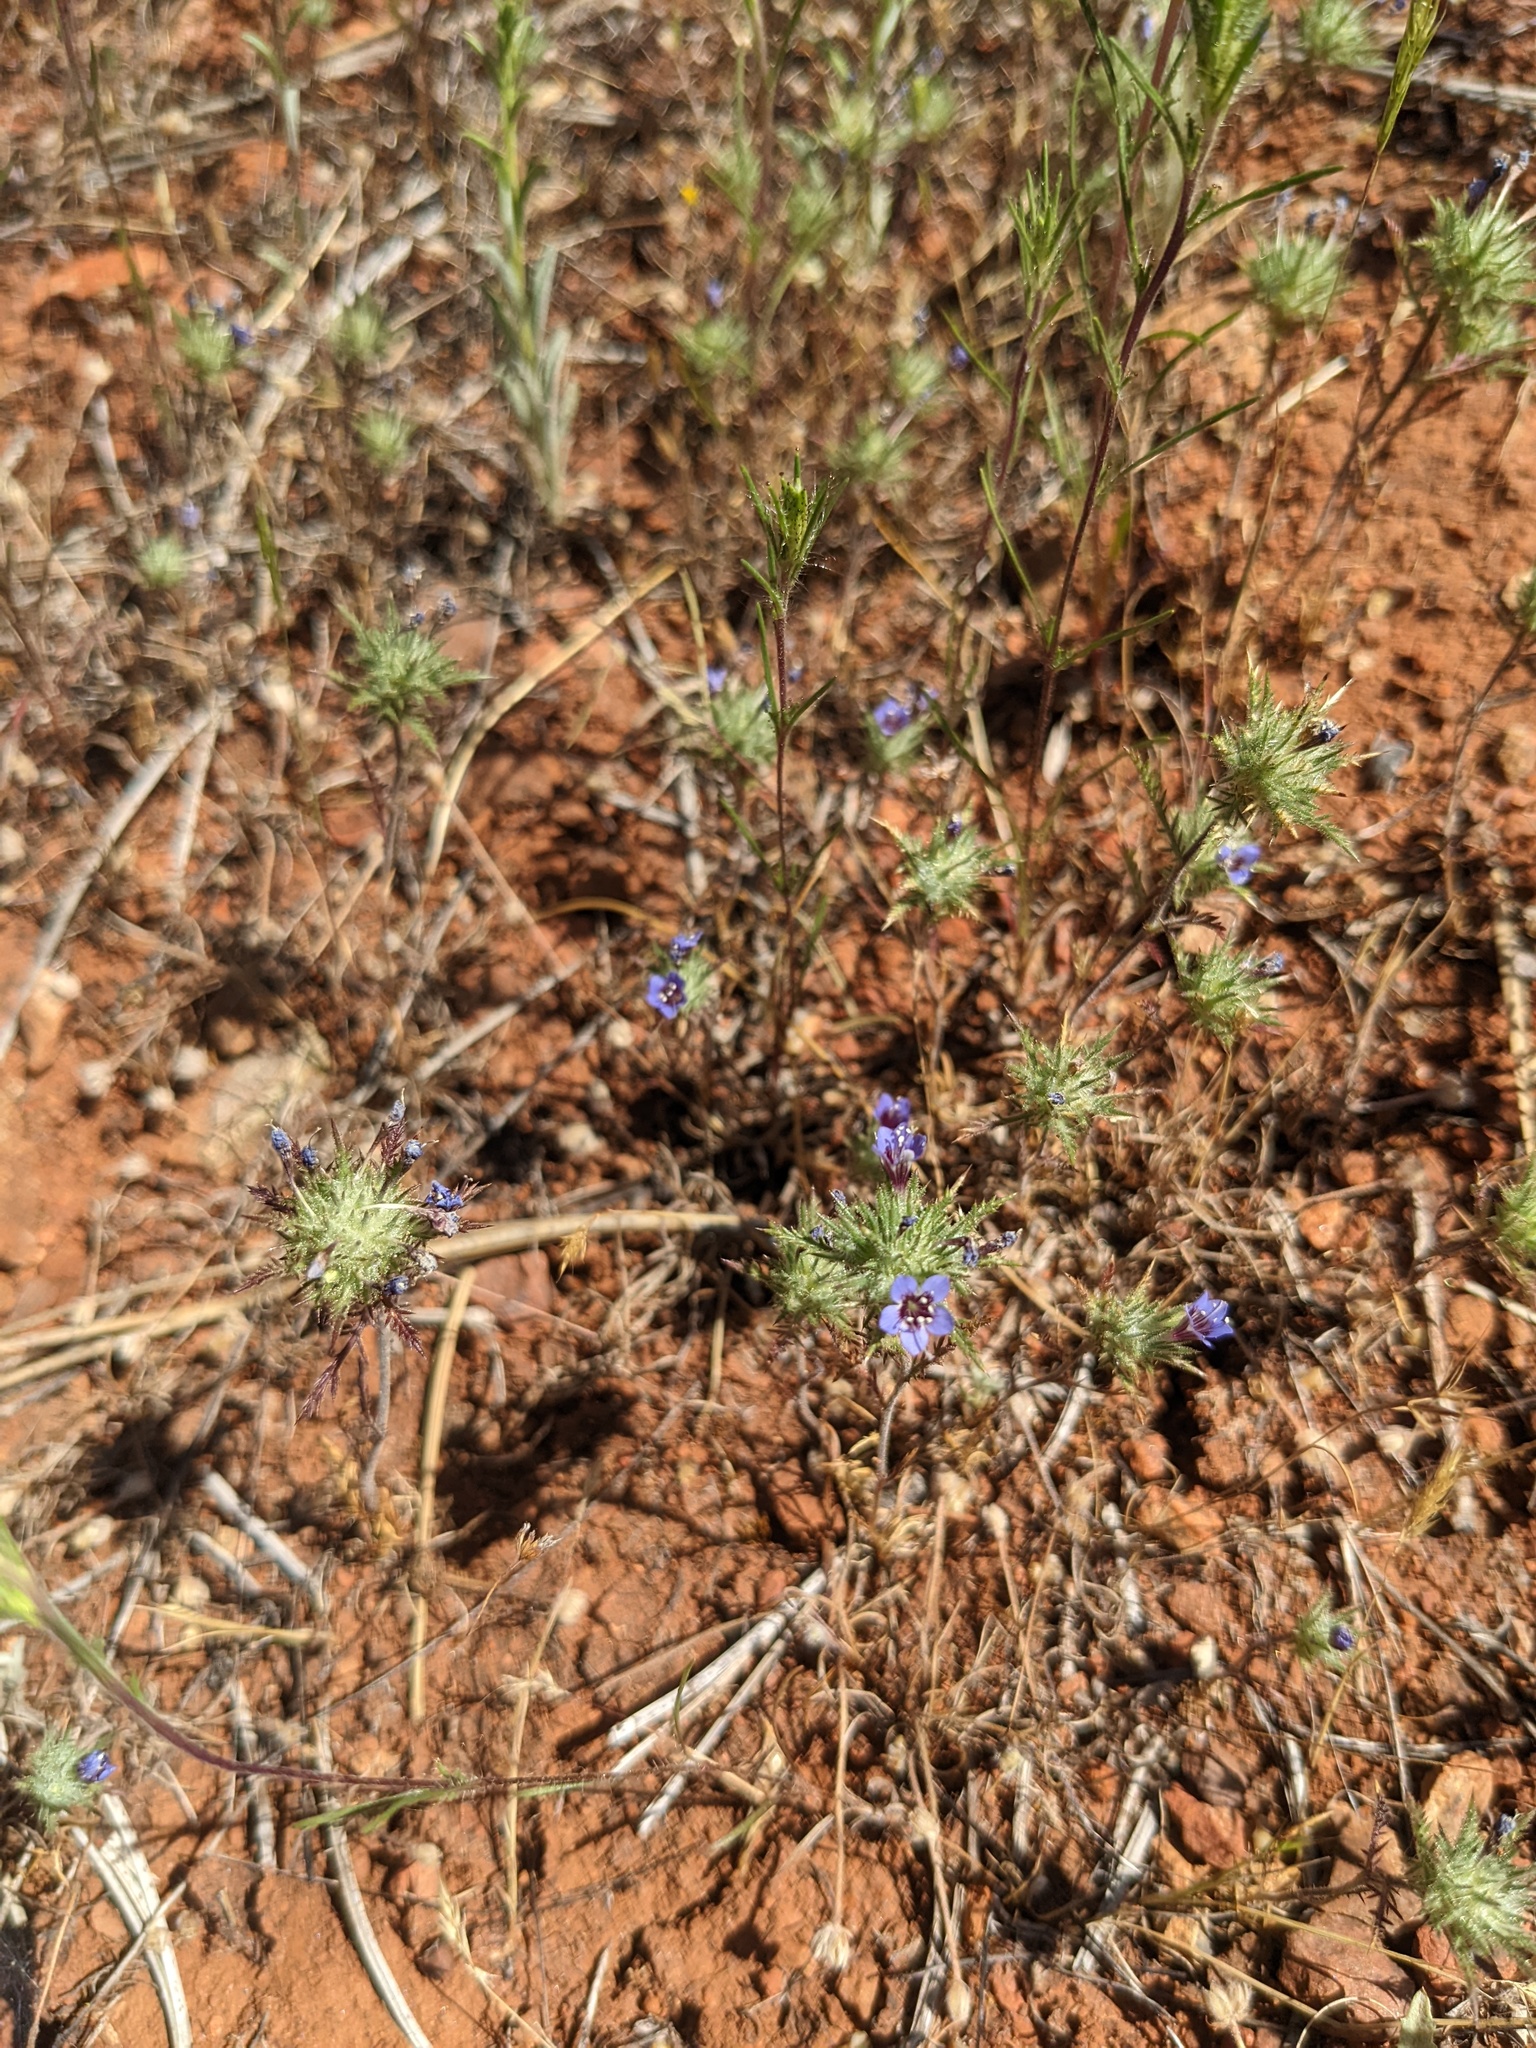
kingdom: Plantae
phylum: Tracheophyta
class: Magnoliopsida
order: Ericales
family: Polemoniaceae
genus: Navarretia
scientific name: Navarretia pubescens
